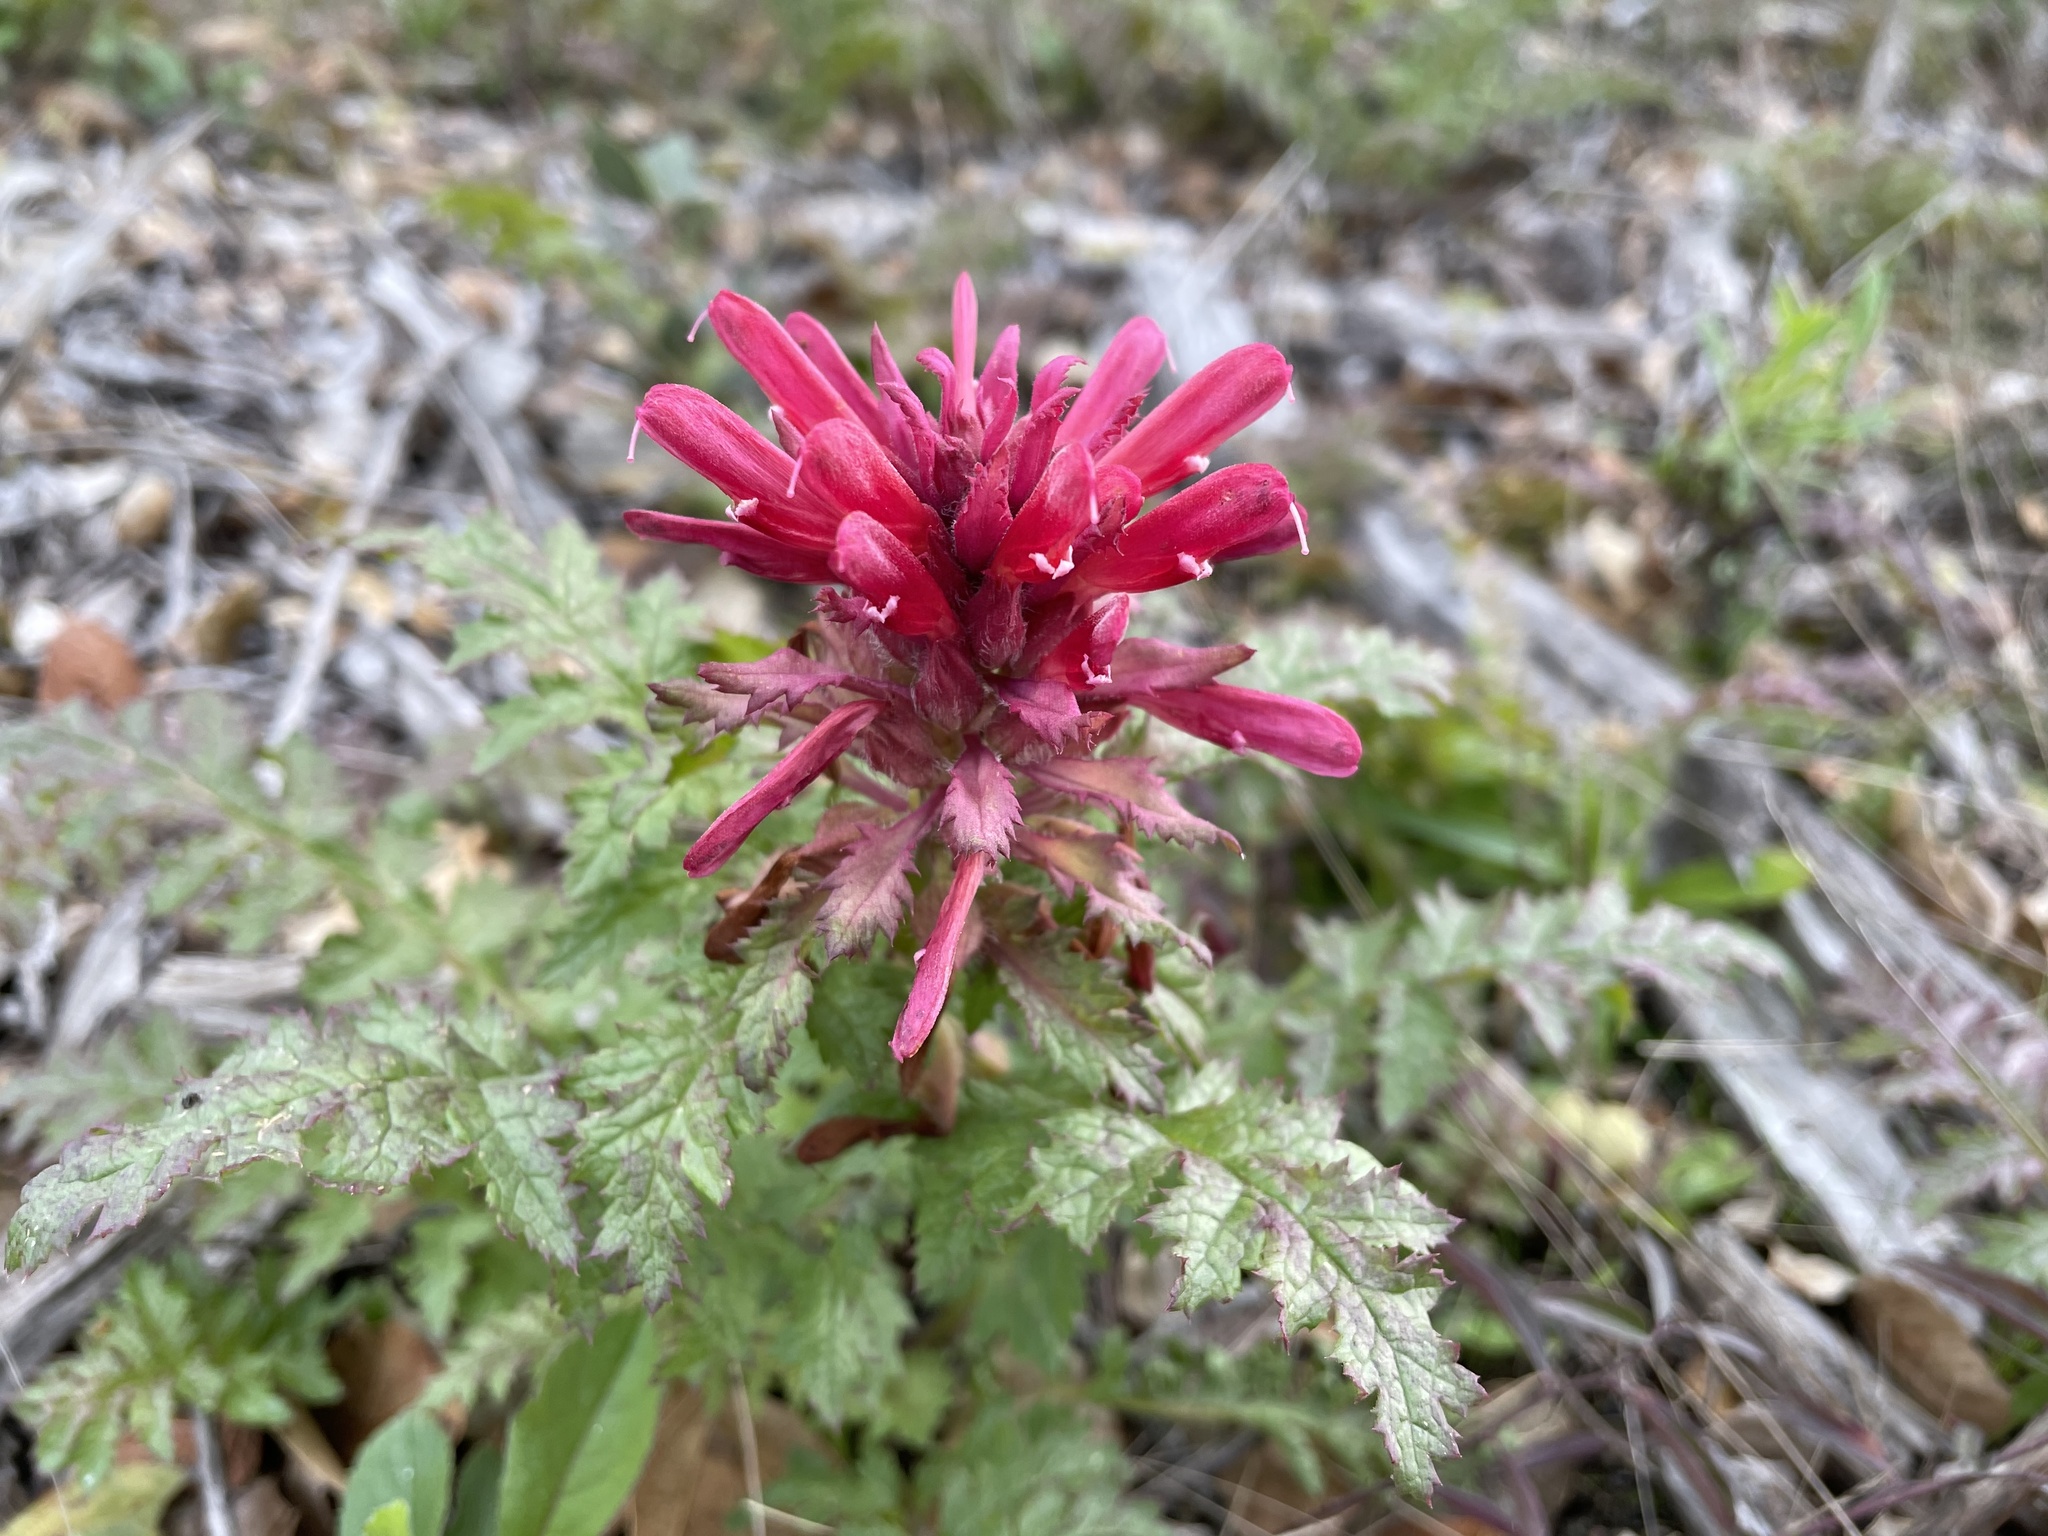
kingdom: Plantae
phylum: Tracheophyta
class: Magnoliopsida
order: Lamiales
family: Orobanchaceae
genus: Pedicularis
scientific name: Pedicularis densiflora
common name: Indian warrior
